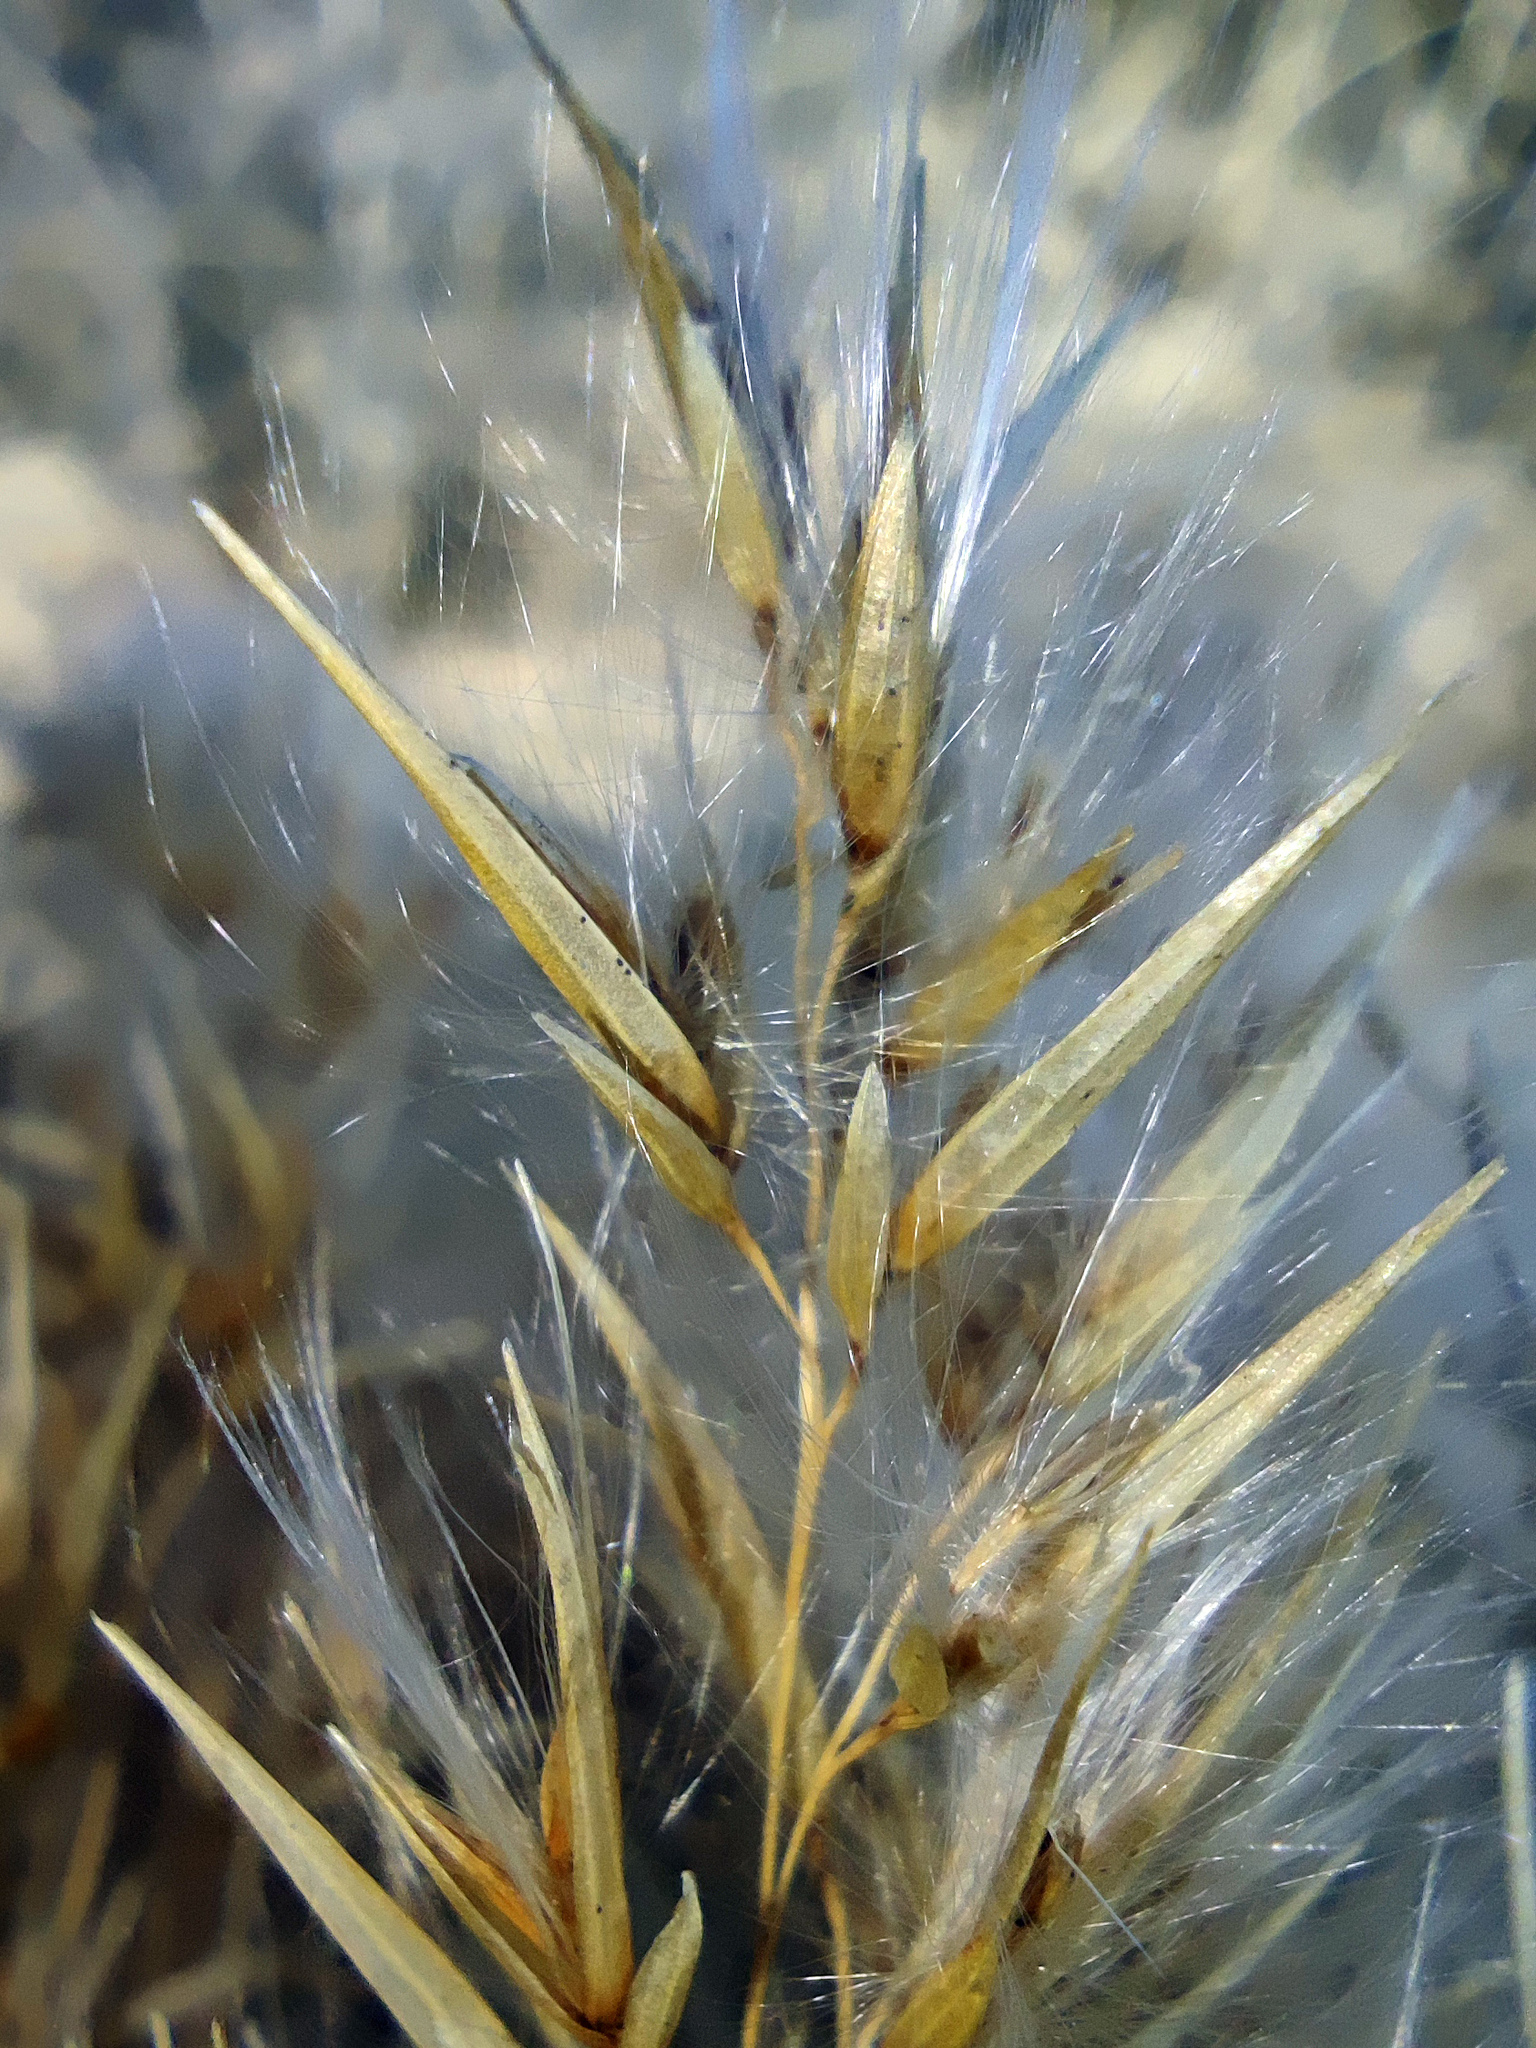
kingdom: Plantae
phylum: Tracheophyta
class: Liliopsida
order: Poales
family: Poaceae
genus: Phragmites
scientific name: Phragmites australis
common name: Common reed
